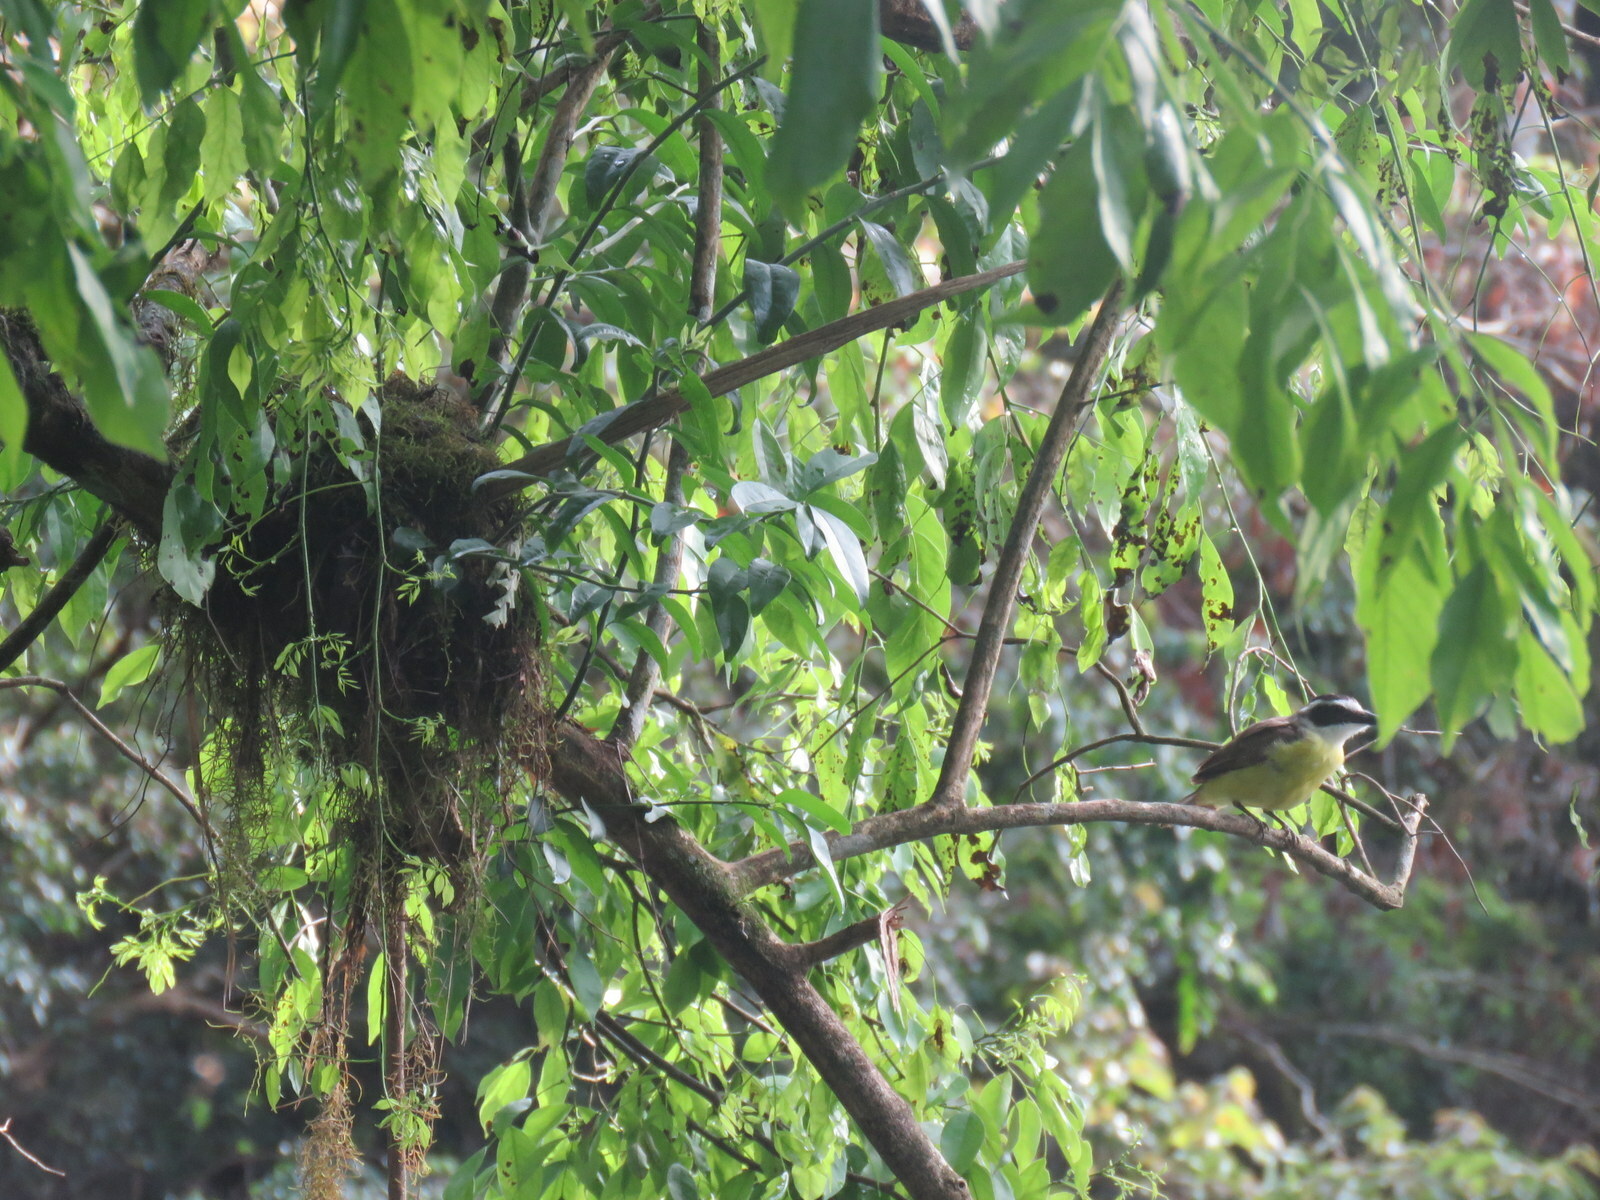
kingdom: Animalia
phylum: Chordata
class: Aves
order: Passeriformes
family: Tyrannidae
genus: Pitangus
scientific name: Pitangus sulphuratus
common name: Great kiskadee
